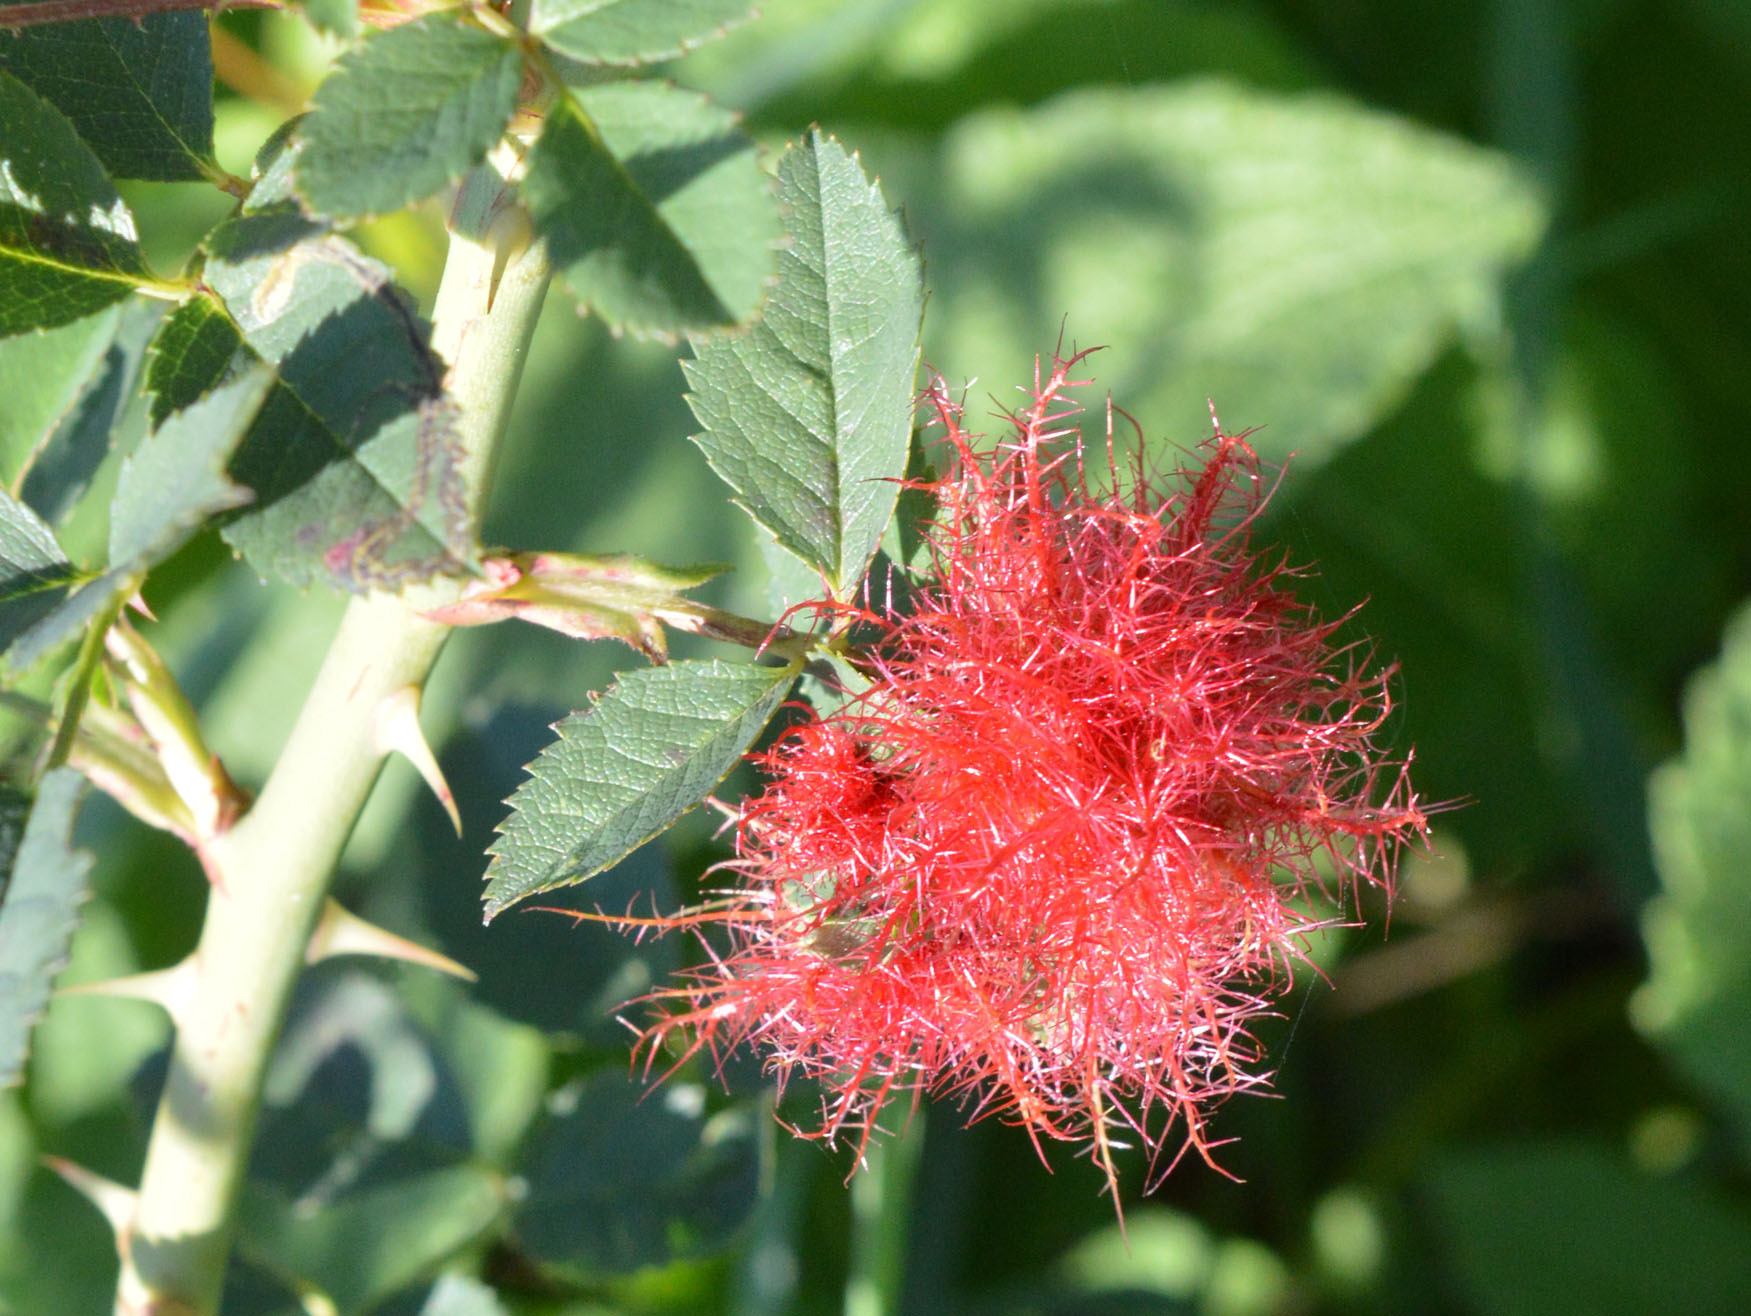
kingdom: Animalia
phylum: Arthropoda
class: Insecta
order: Hymenoptera
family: Cynipidae
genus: Diplolepis
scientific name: Diplolepis rosae
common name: Bedeguar gall
